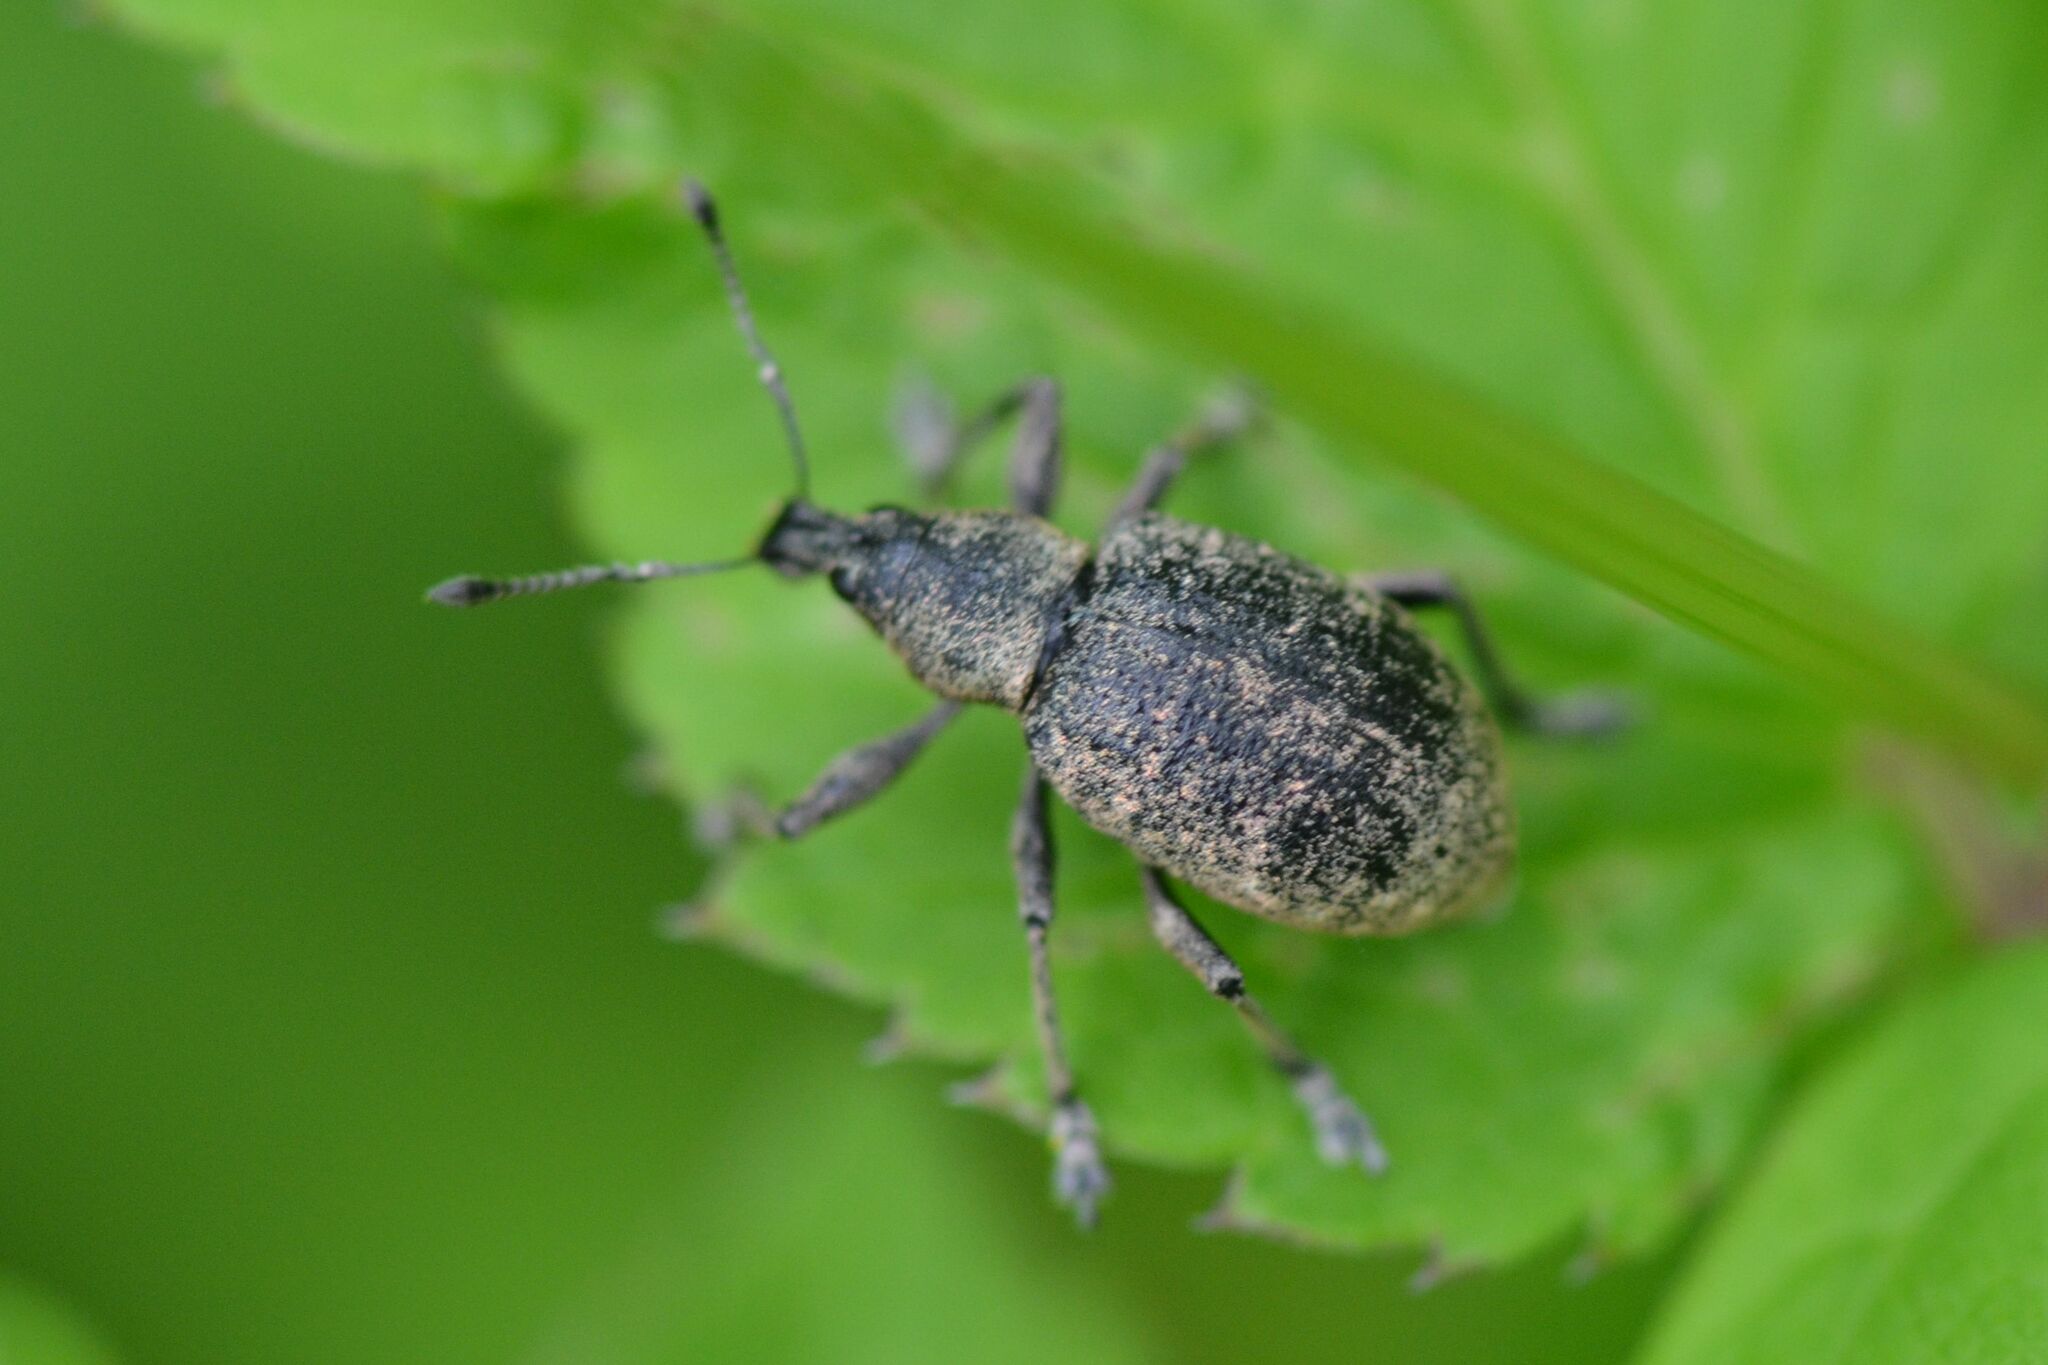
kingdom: Animalia
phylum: Arthropoda
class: Insecta
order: Coleoptera
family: Curculionidae
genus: Liophloeus
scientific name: Liophloeus tessulatus
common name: Weevil
